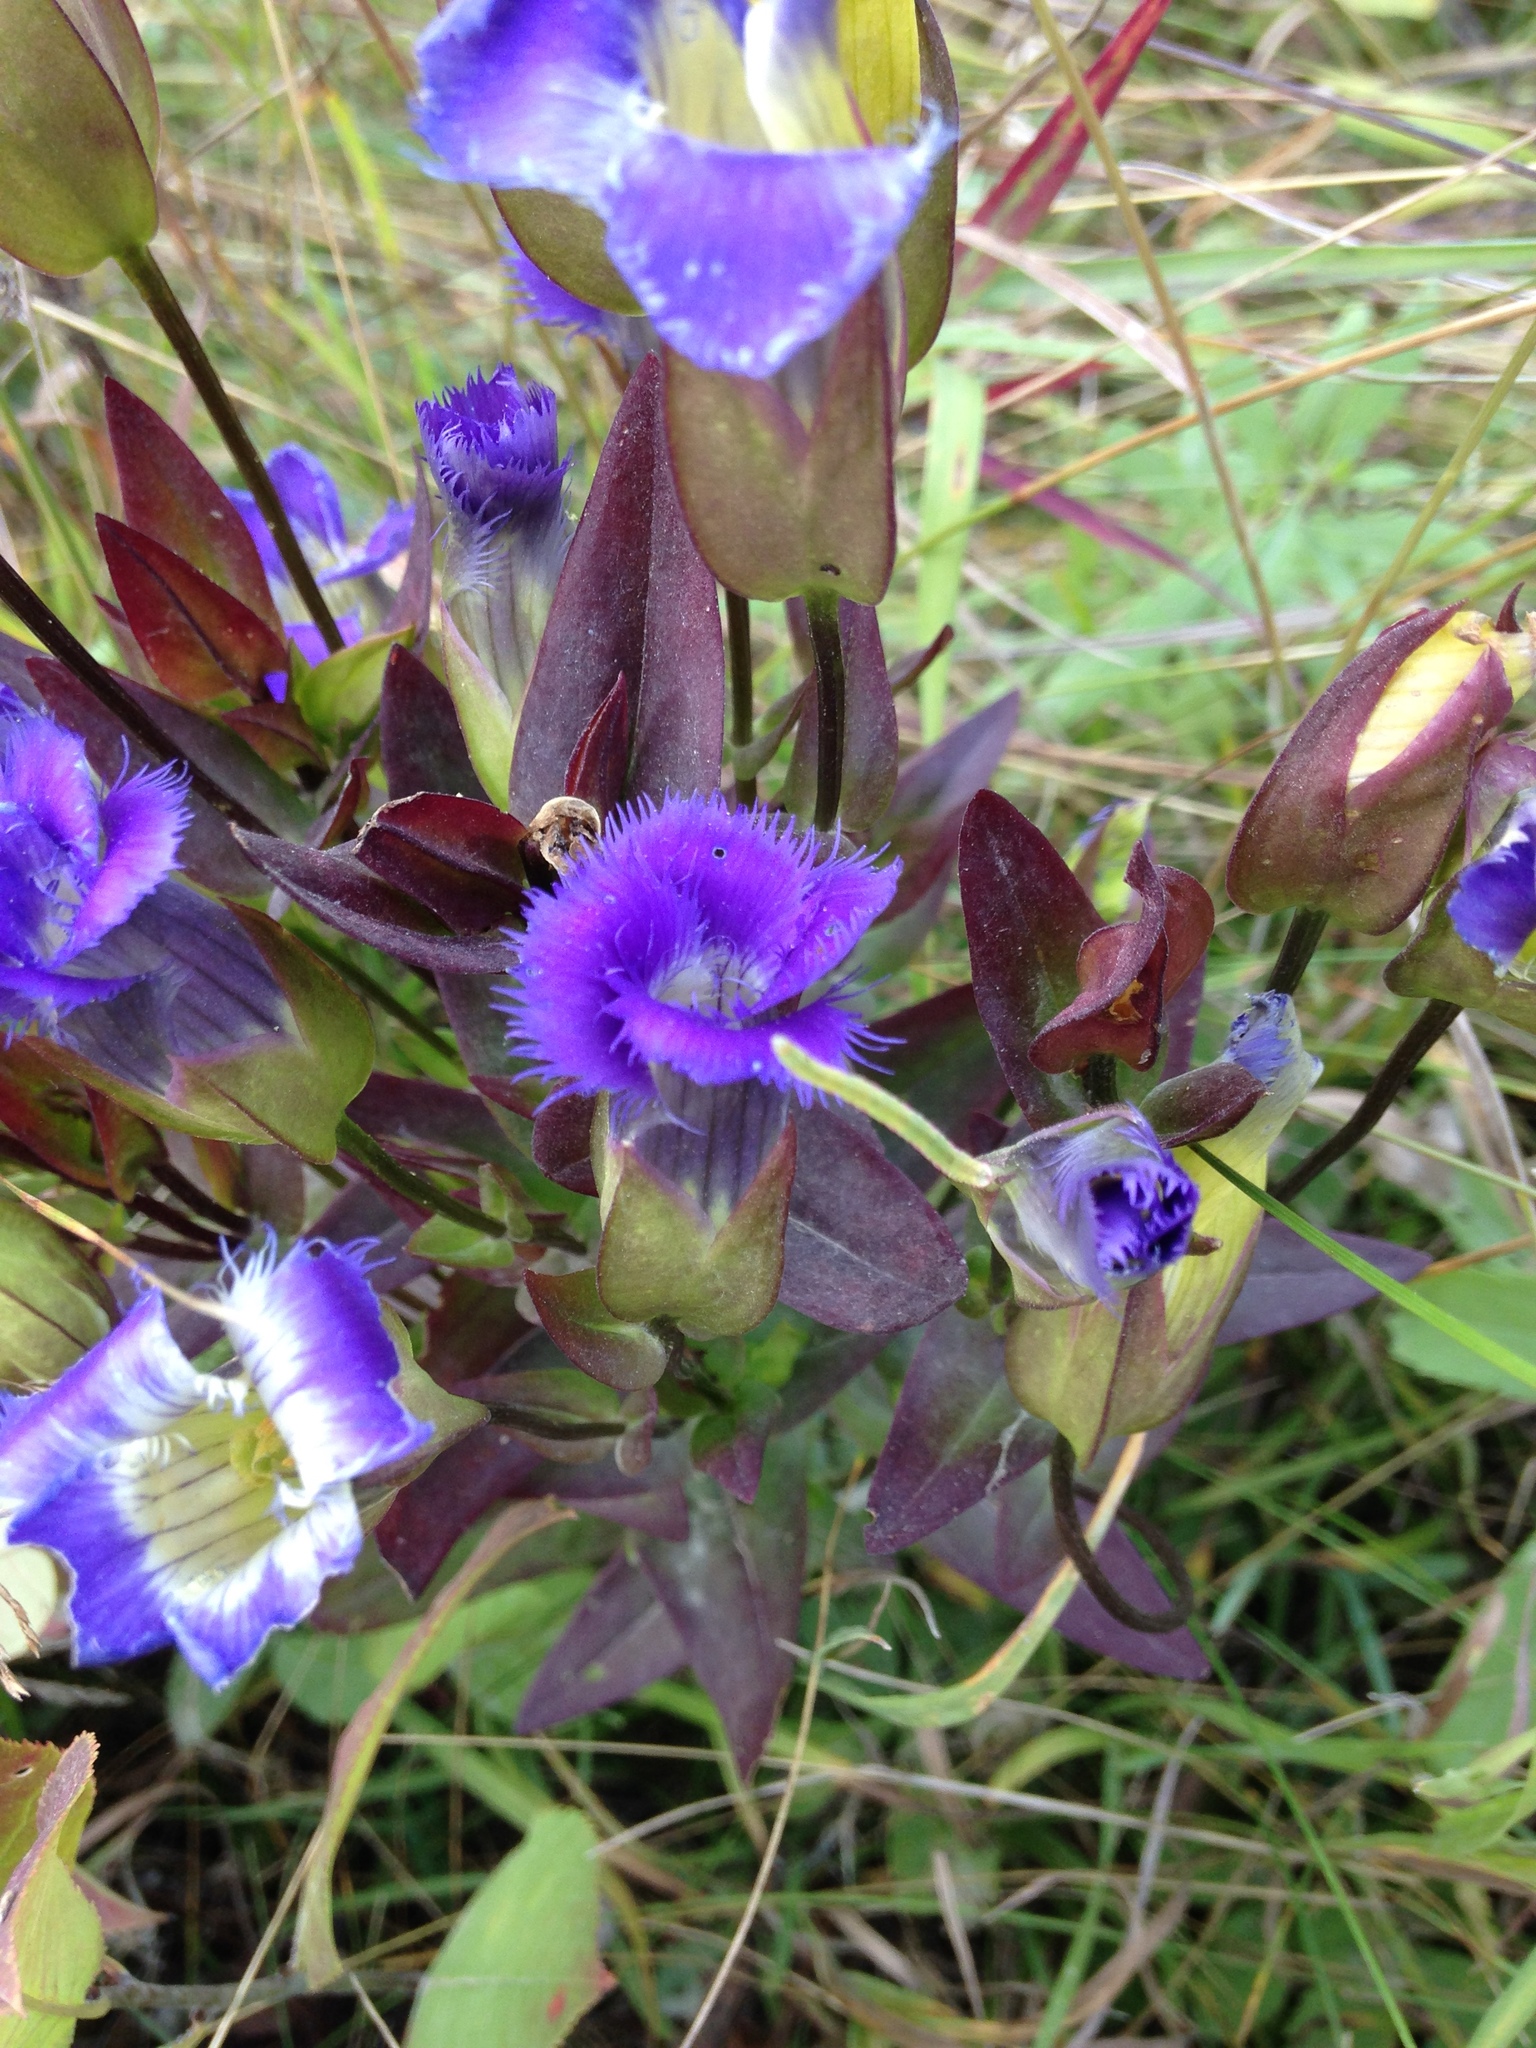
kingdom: Plantae
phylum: Tracheophyta
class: Magnoliopsida
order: Gentianales
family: Gentianaceae
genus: Gentianopsis
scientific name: Gentianopsis crinita
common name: Fringed-gentian
